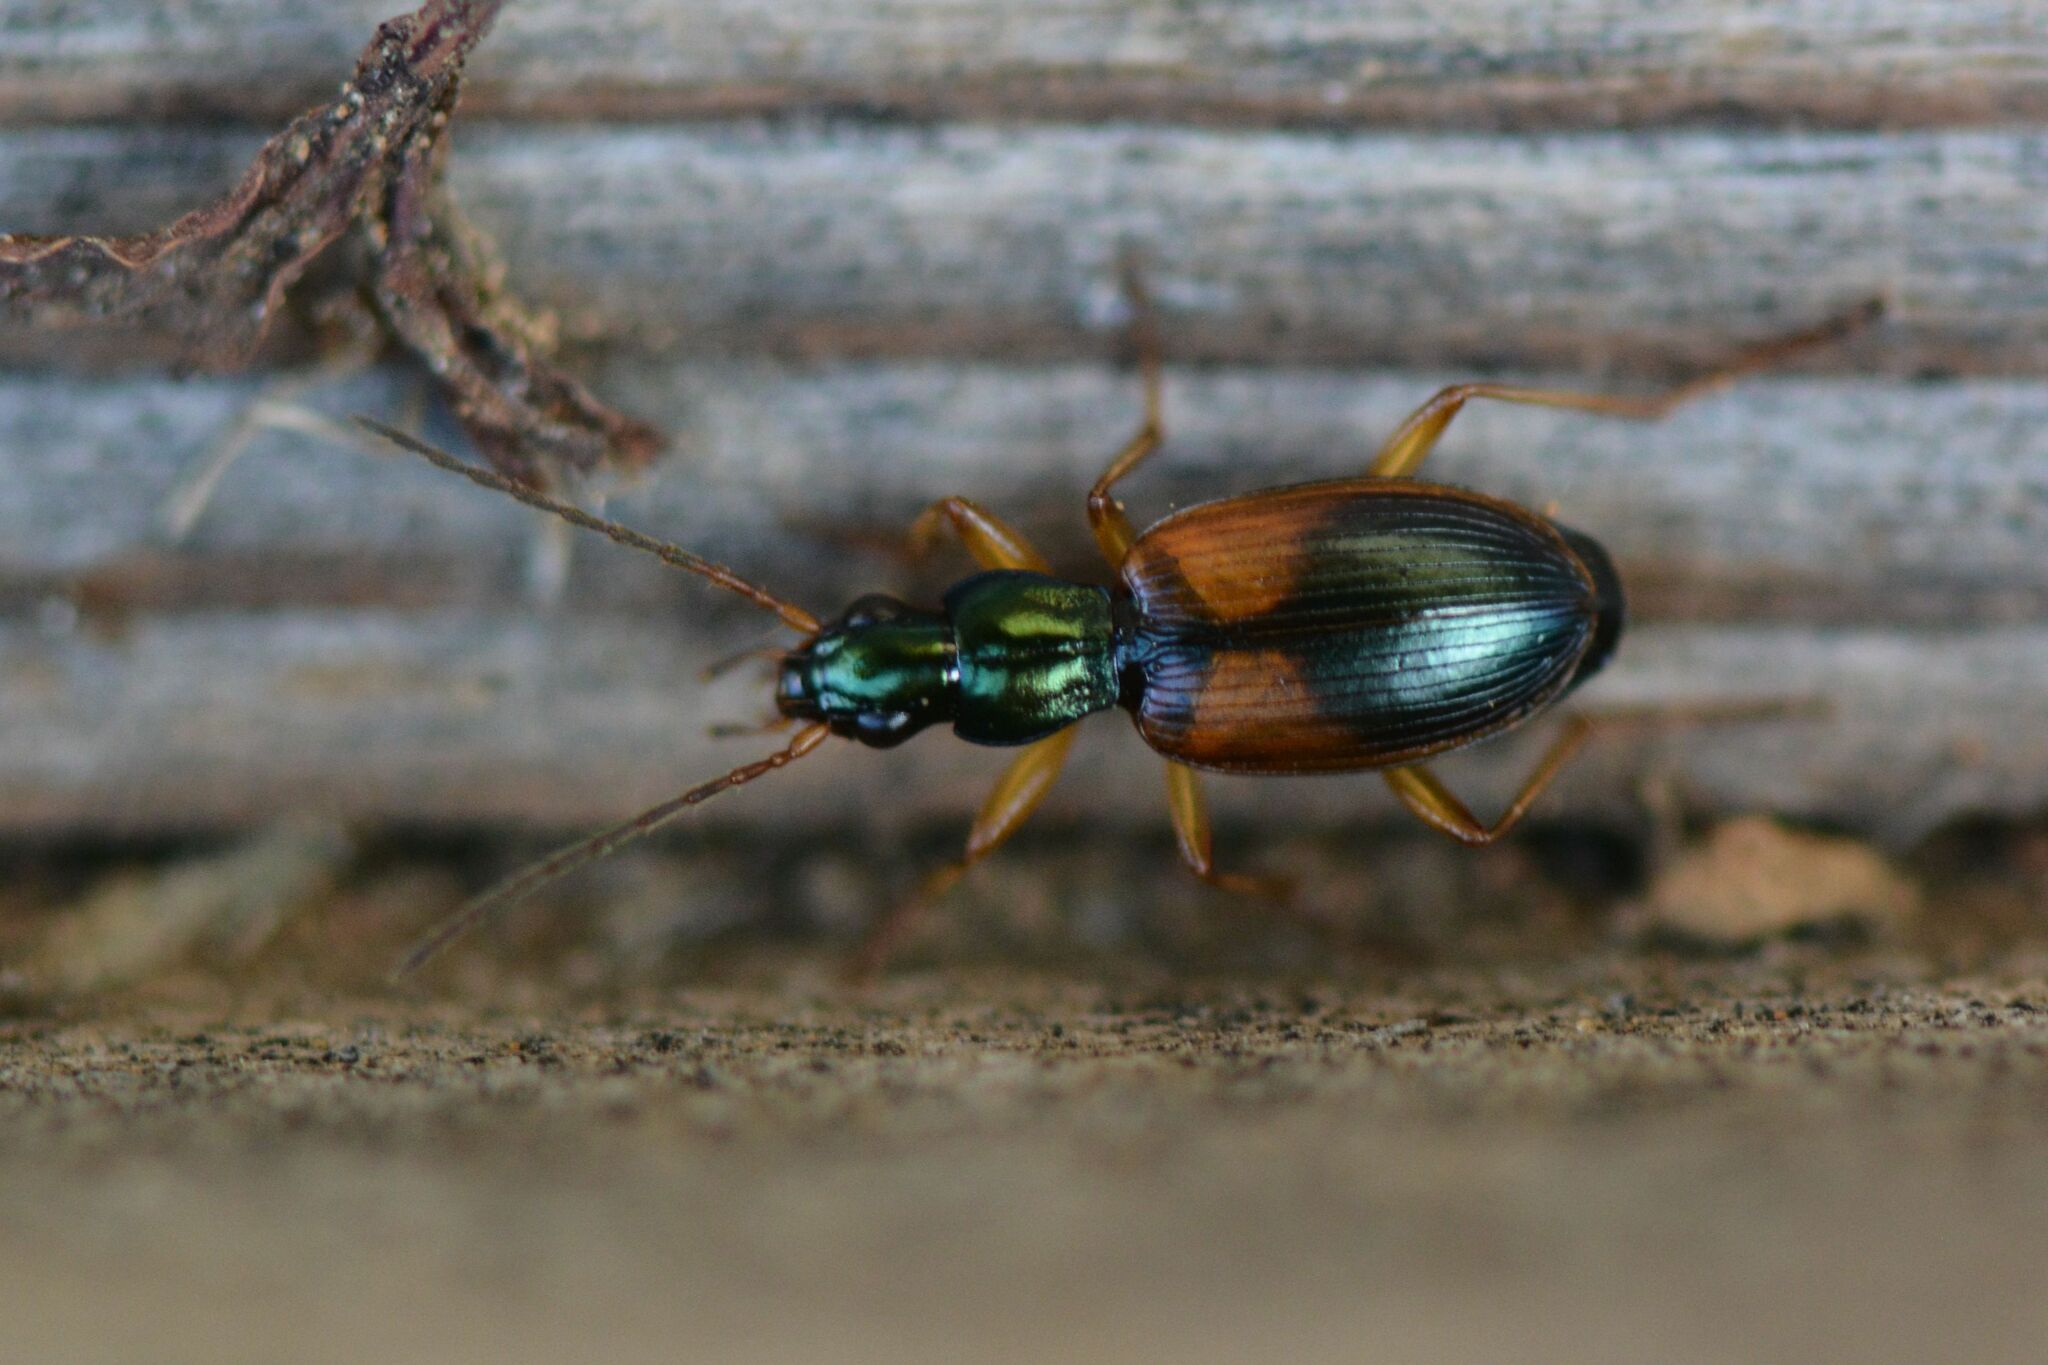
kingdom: Animalia
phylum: Arthropoda
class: Insecta
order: Coleoptera
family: Carabidae
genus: Anchomenus
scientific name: Anchomenus dorsalis
